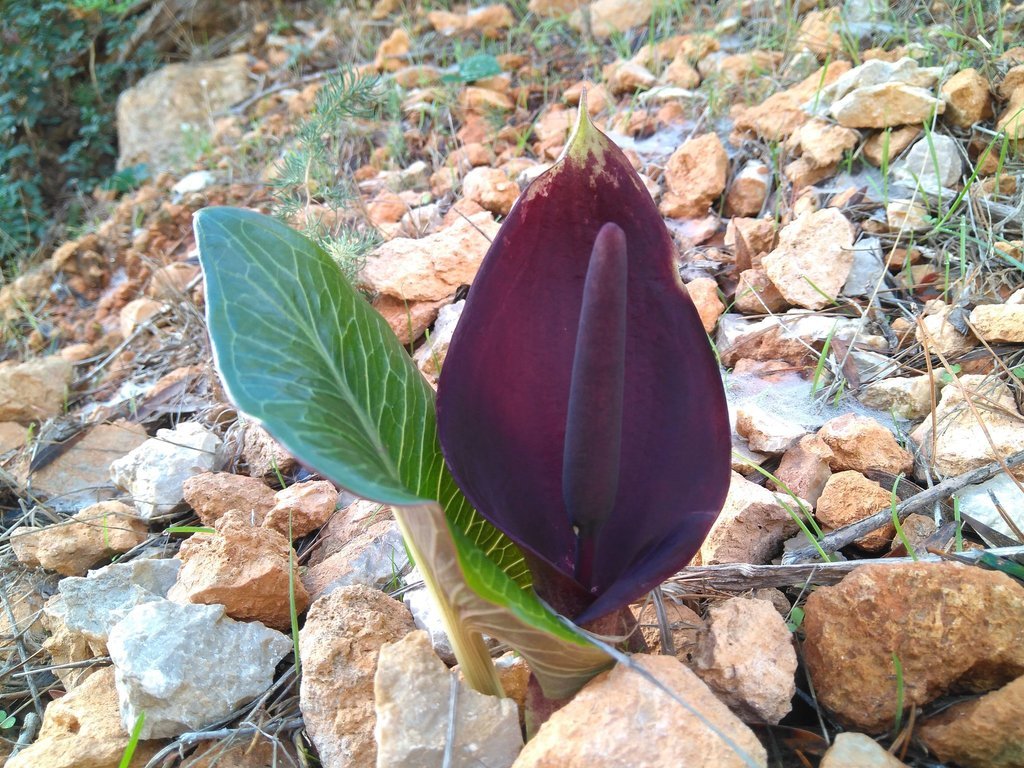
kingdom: Plantae
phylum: Tracheophyta
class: Liliopsida
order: Alismatales
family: Araceae
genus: Arum
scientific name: Arum pictum
